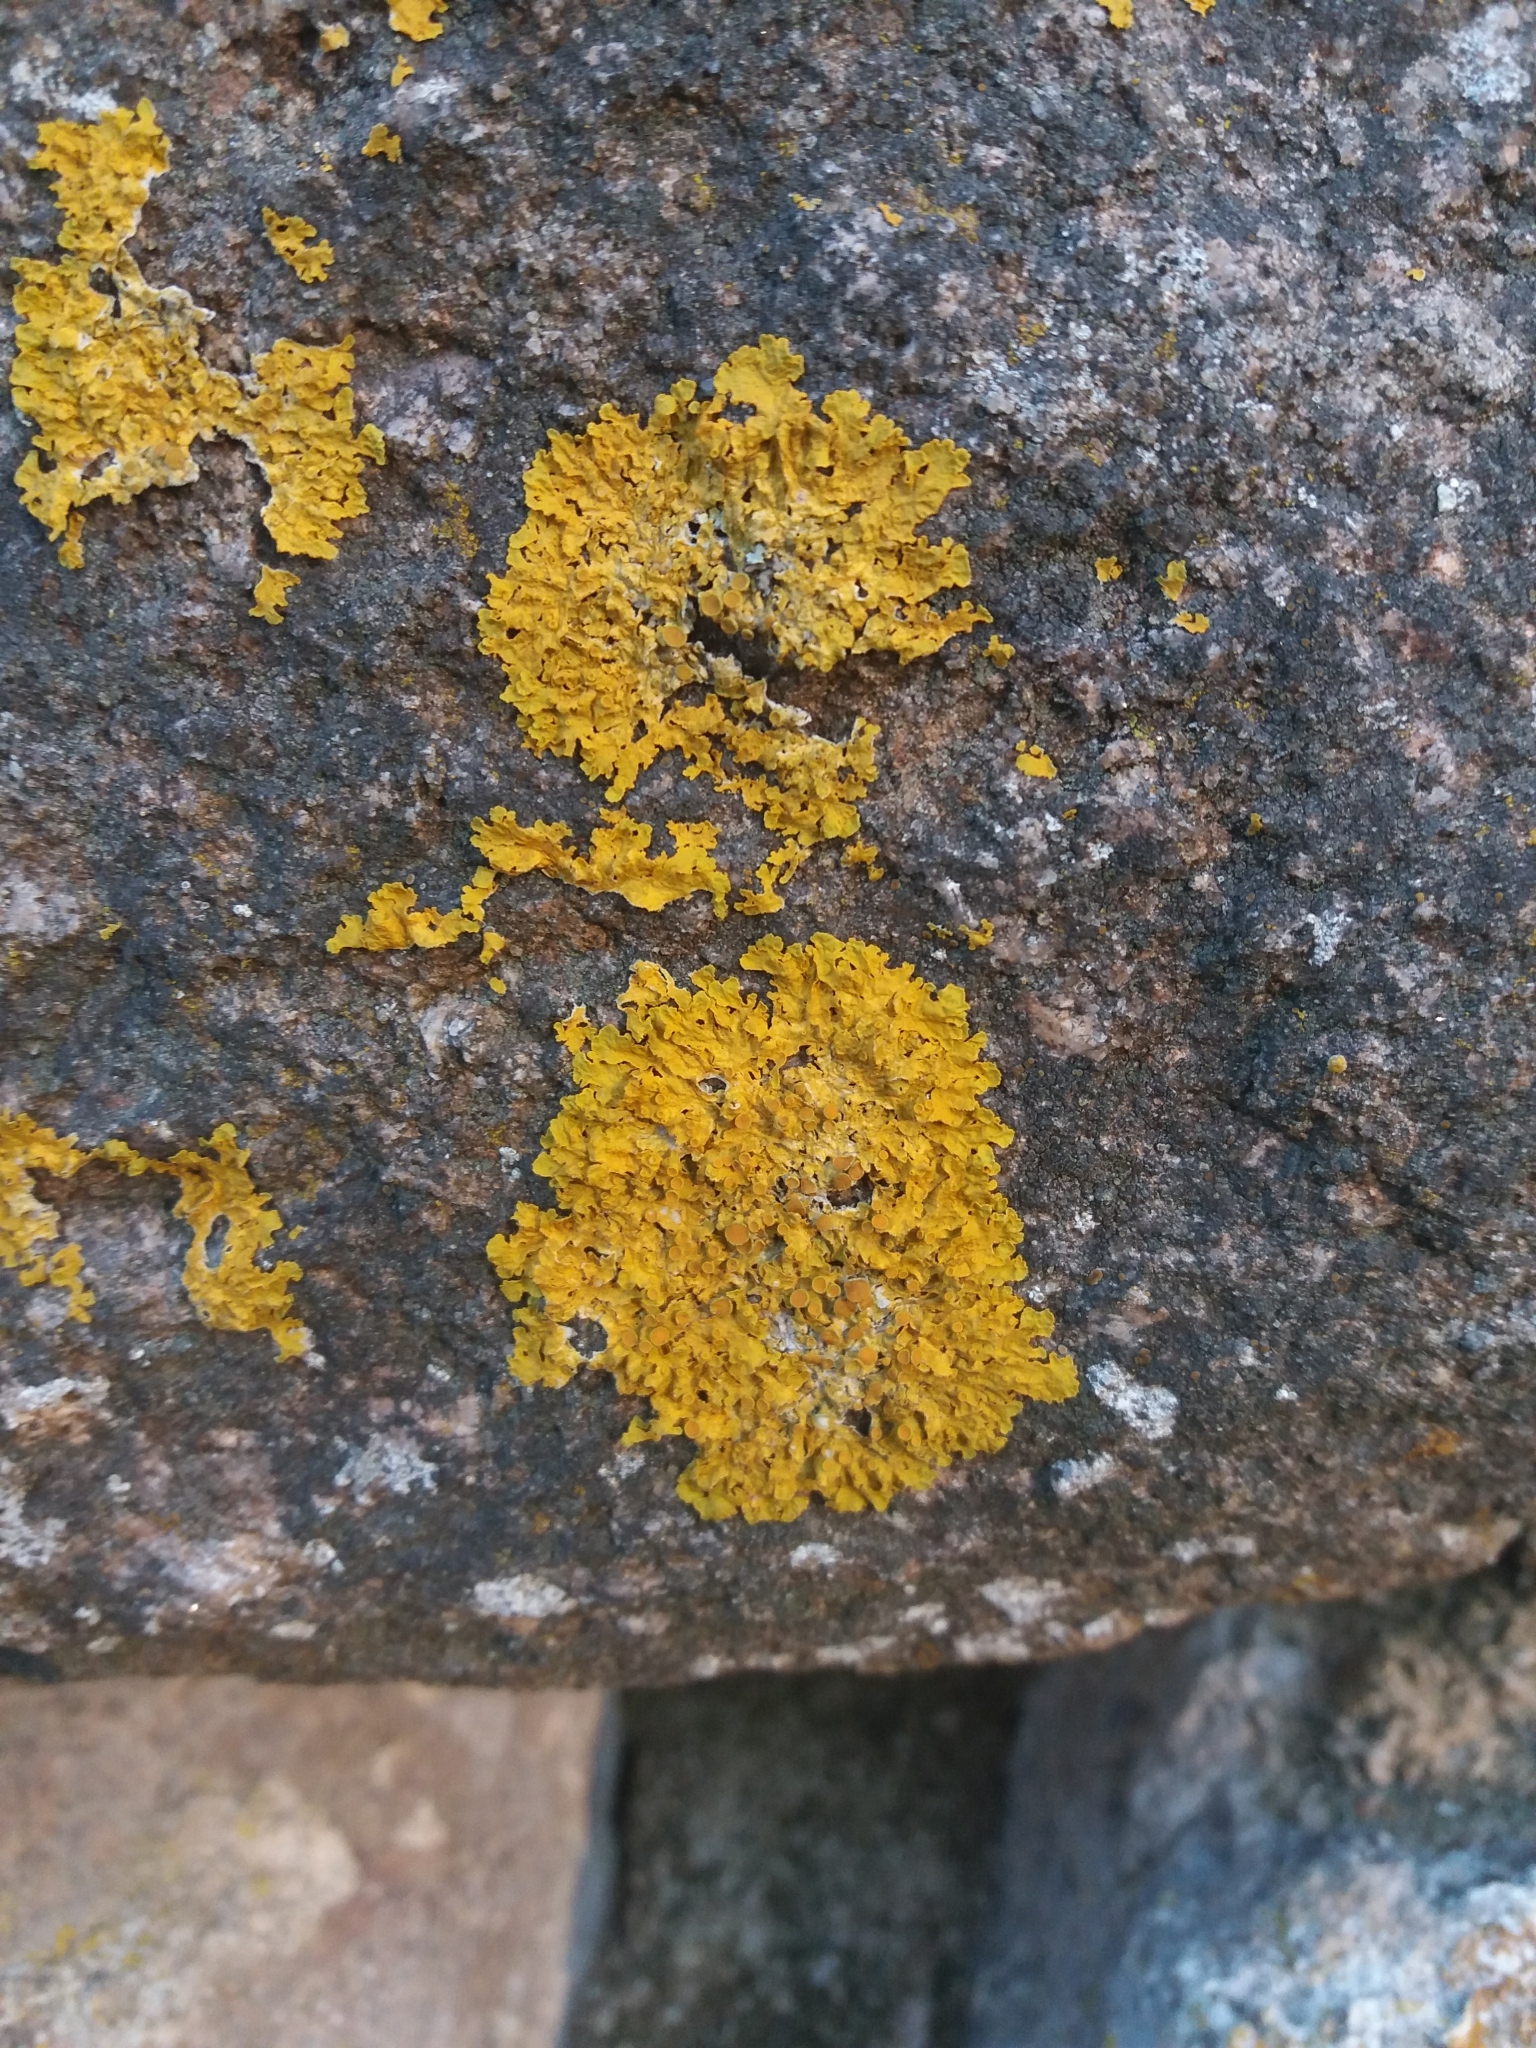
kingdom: Fungi
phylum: Ascomycota
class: Lecanoromycetes
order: Teloschistales
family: Teloschistaceae
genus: Xanthoria
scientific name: Xanthoria parietina
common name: Common orange lichen
